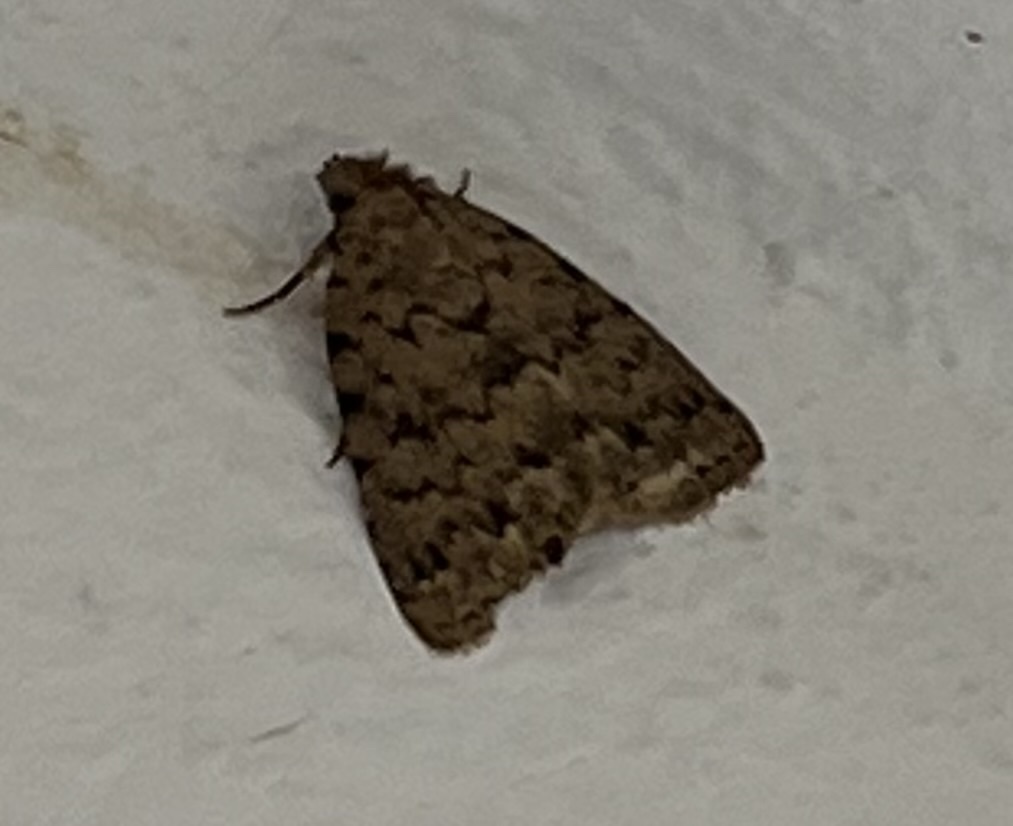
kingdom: Animalia
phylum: Arthropoda
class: Insecta
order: Lepidoptera
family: Erebidae
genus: Apopestes
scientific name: Apopestes spectrum
